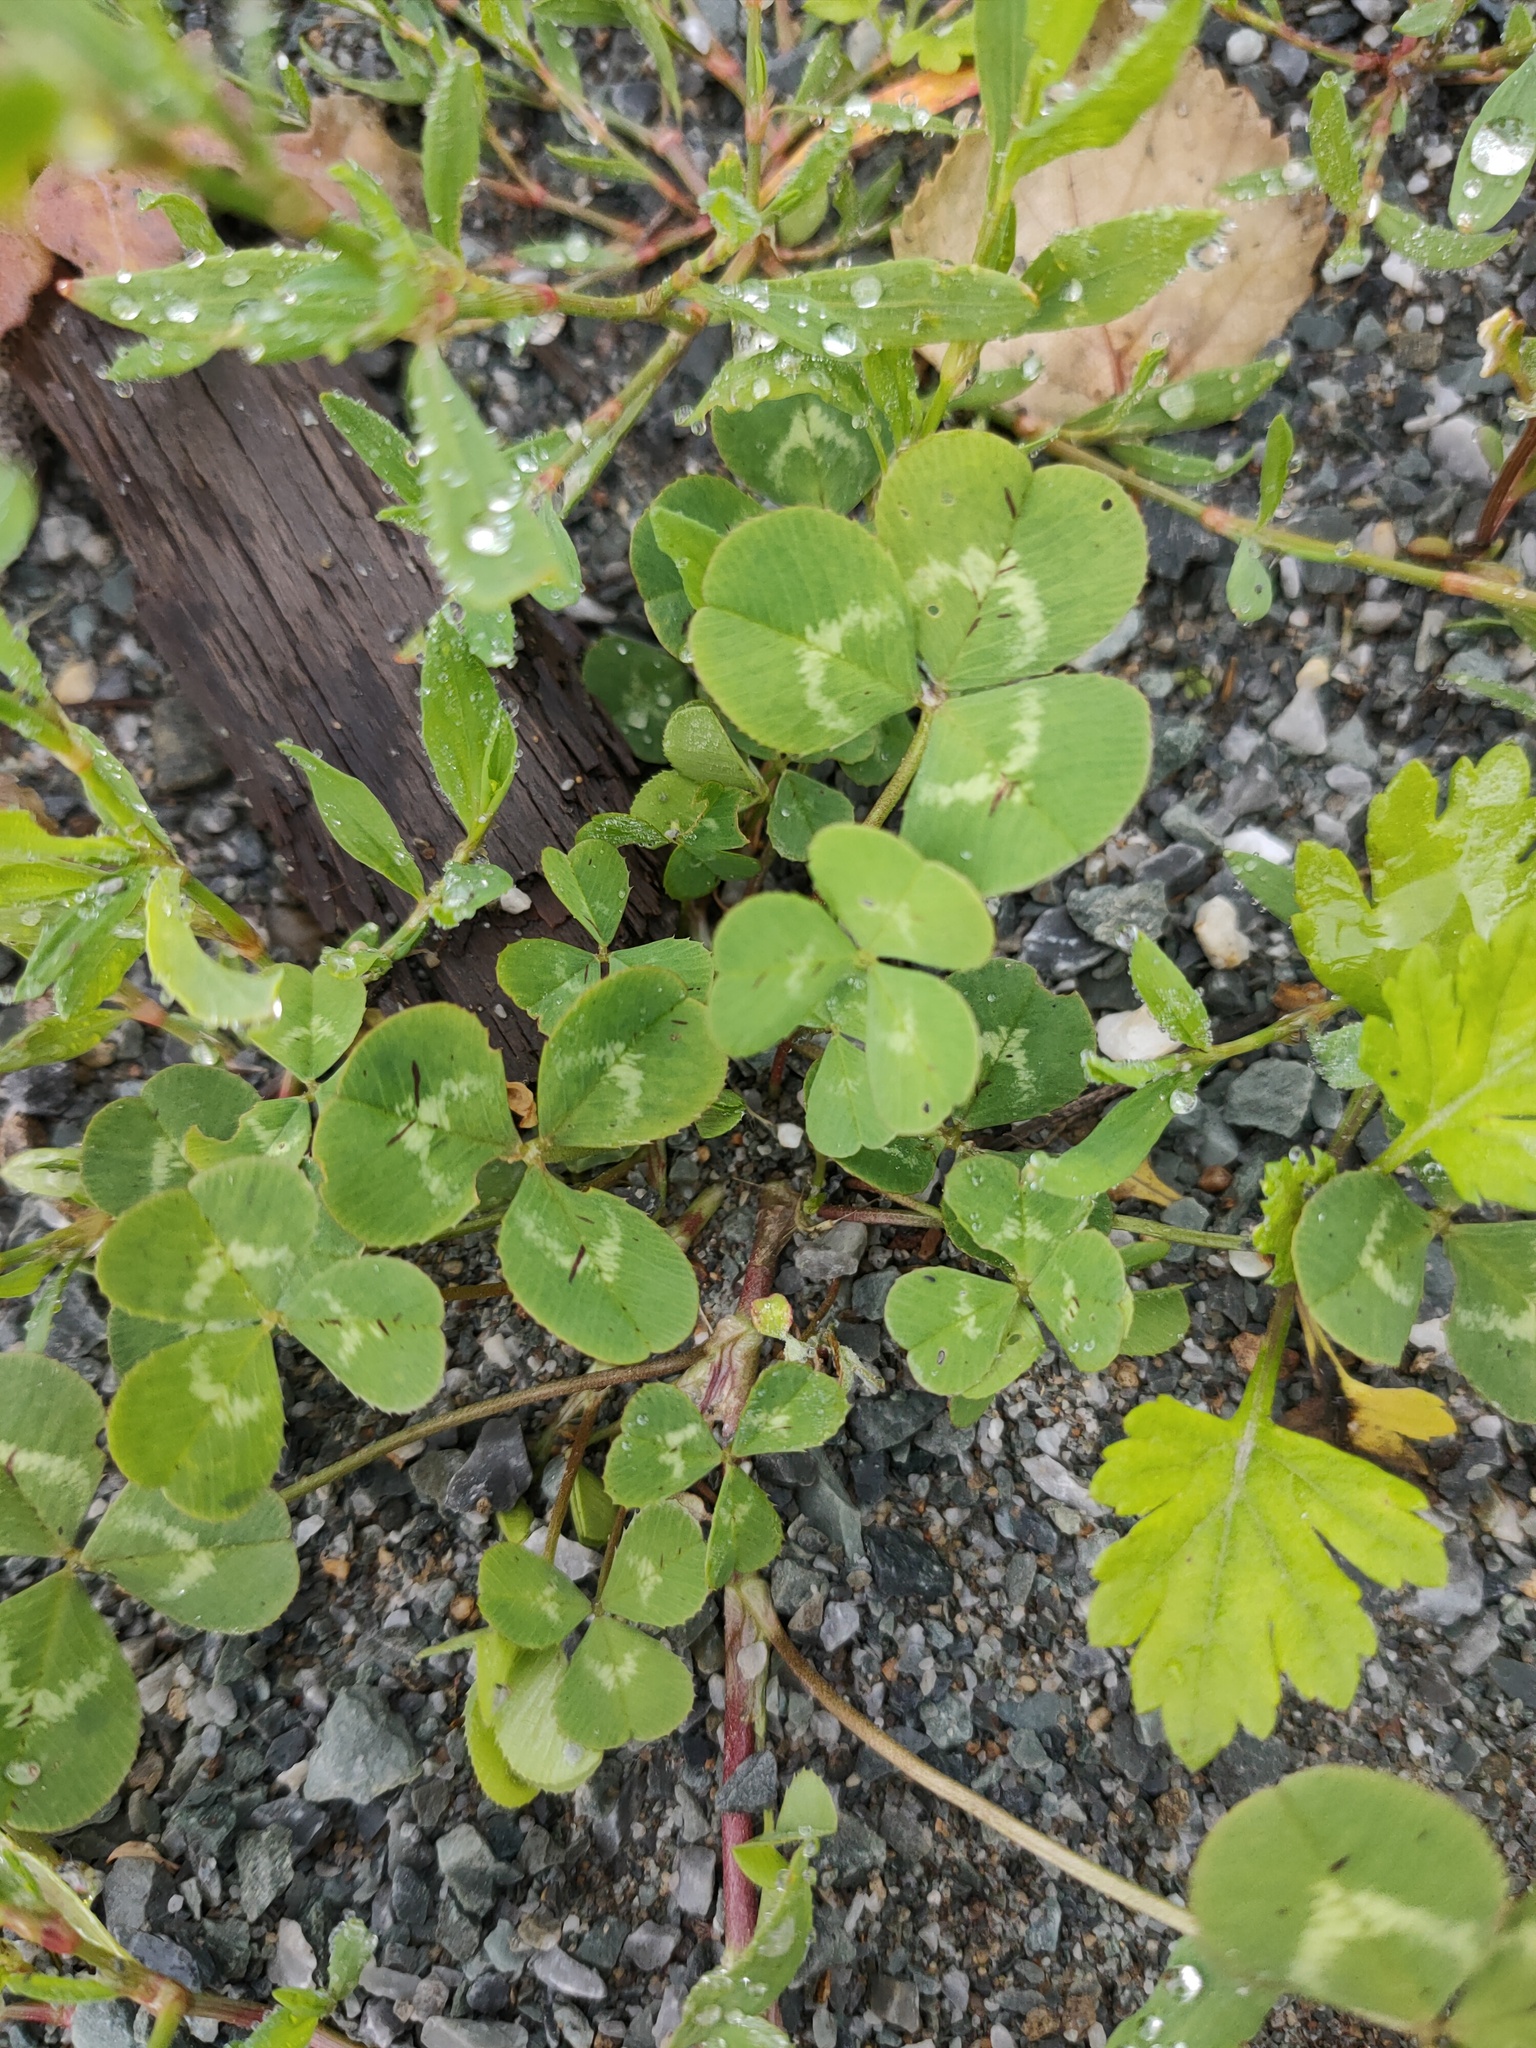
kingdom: Plantae
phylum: Tracheophyta
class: Magnoliopsida
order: Fabales
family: Fabaceae
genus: Trifolium
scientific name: Trifolium repens
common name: White clover
